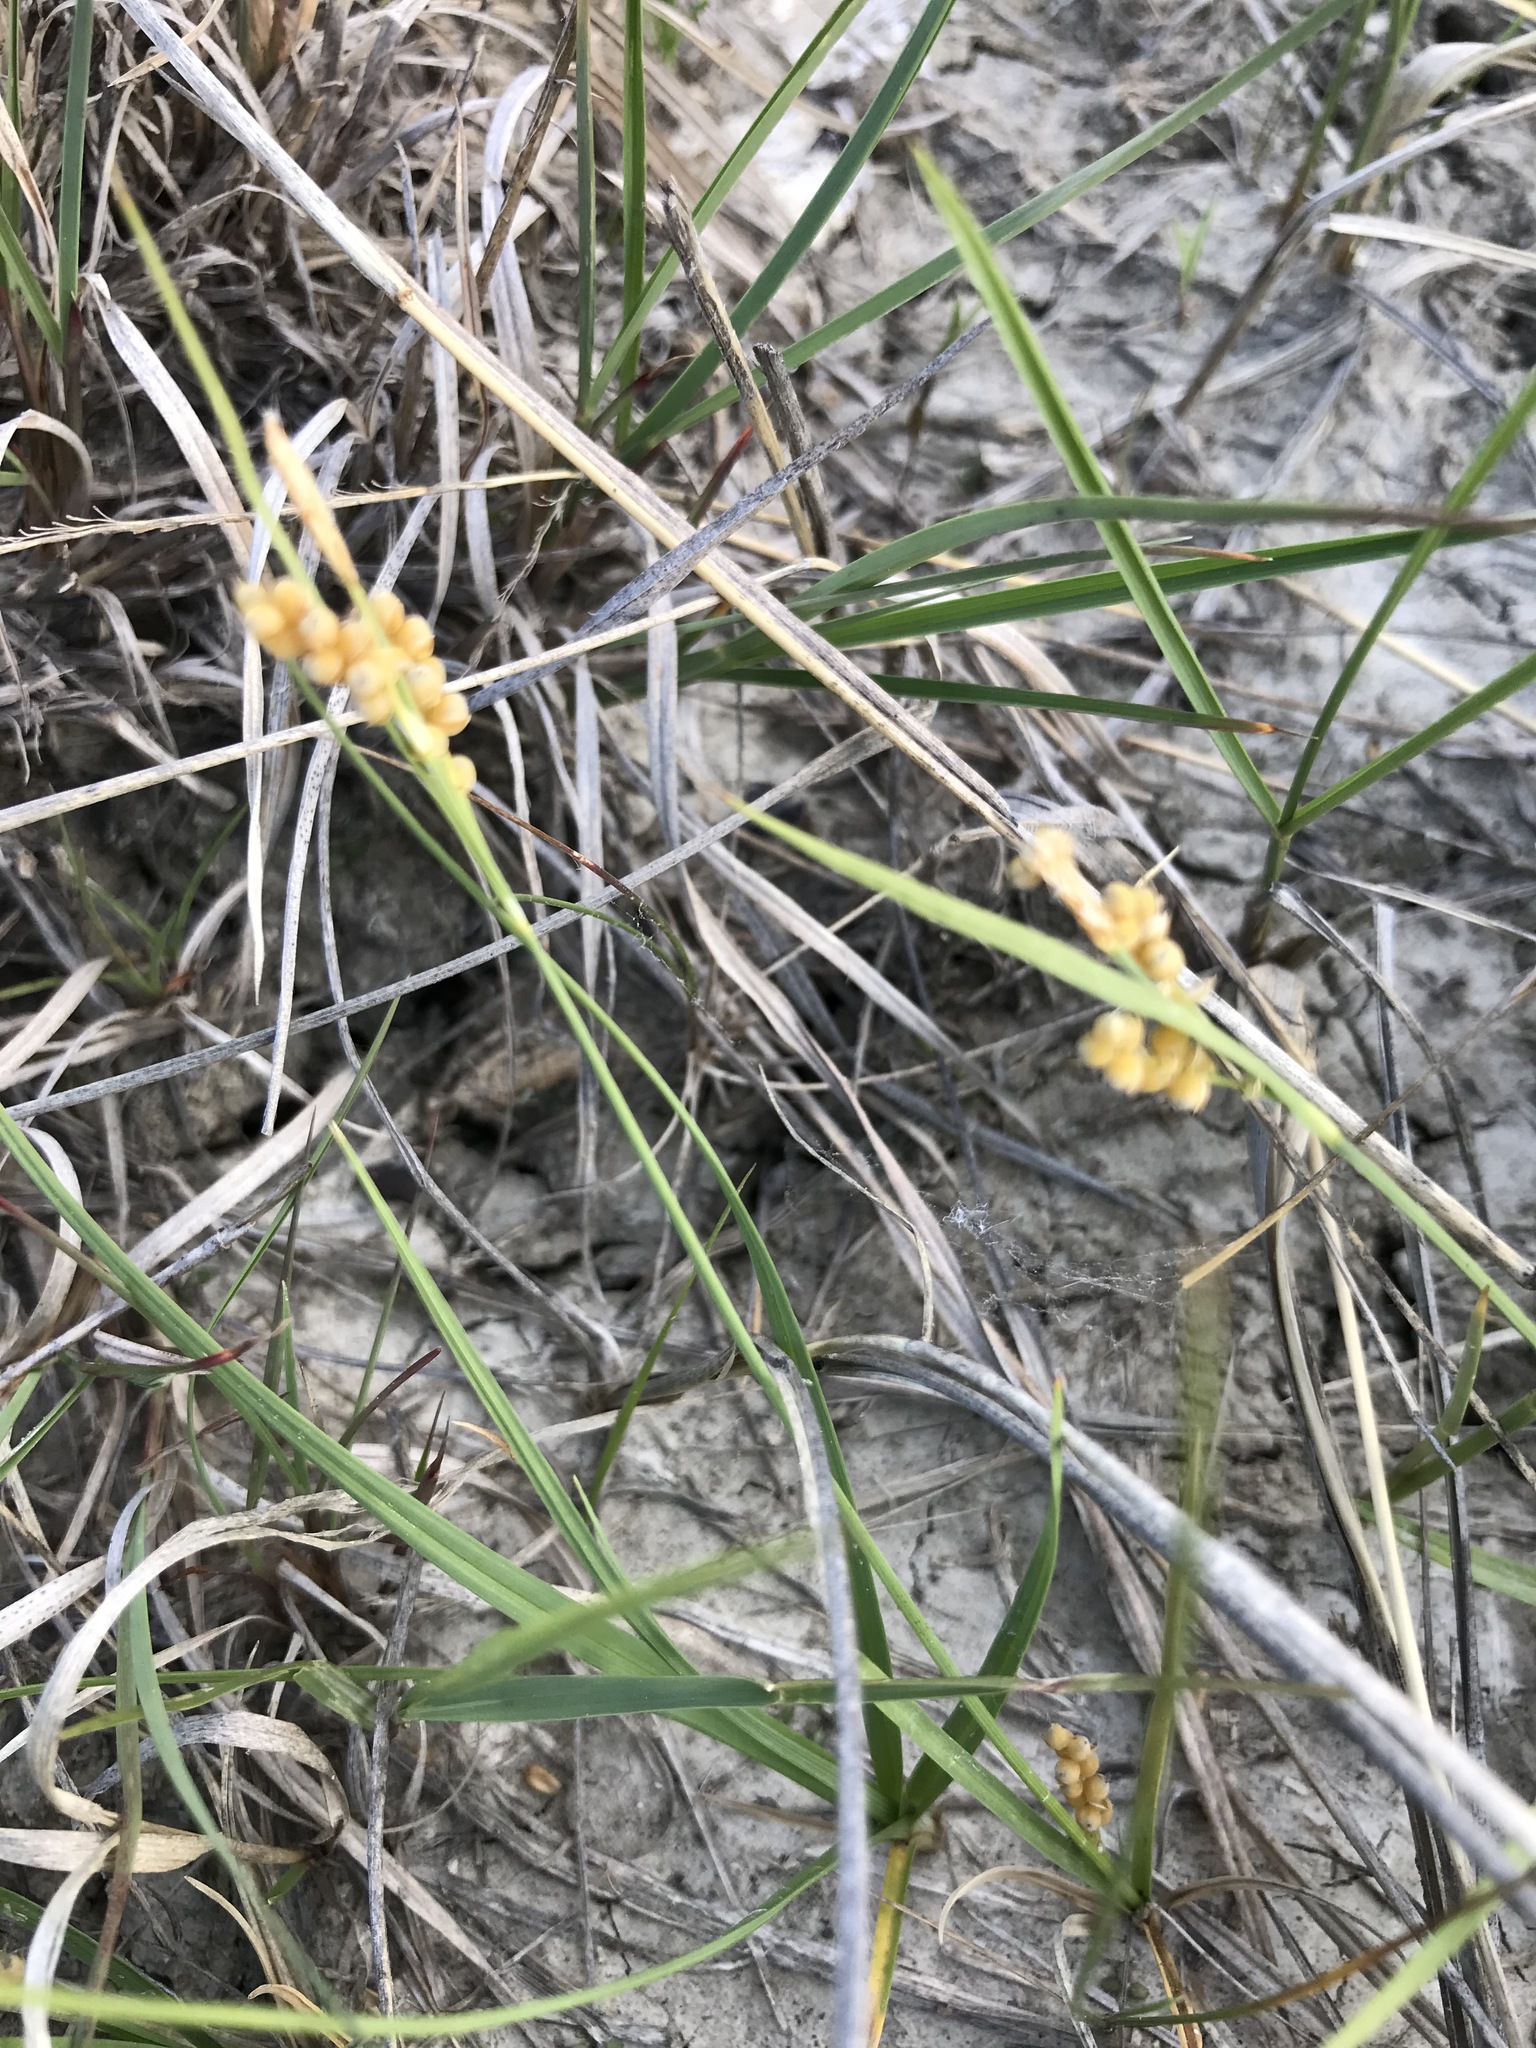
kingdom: Plantae
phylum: Tracheophyta
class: Liliopsida
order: Poales
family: Cyperaceae
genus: Carex
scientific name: Carex aurea
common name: Golden sedge
